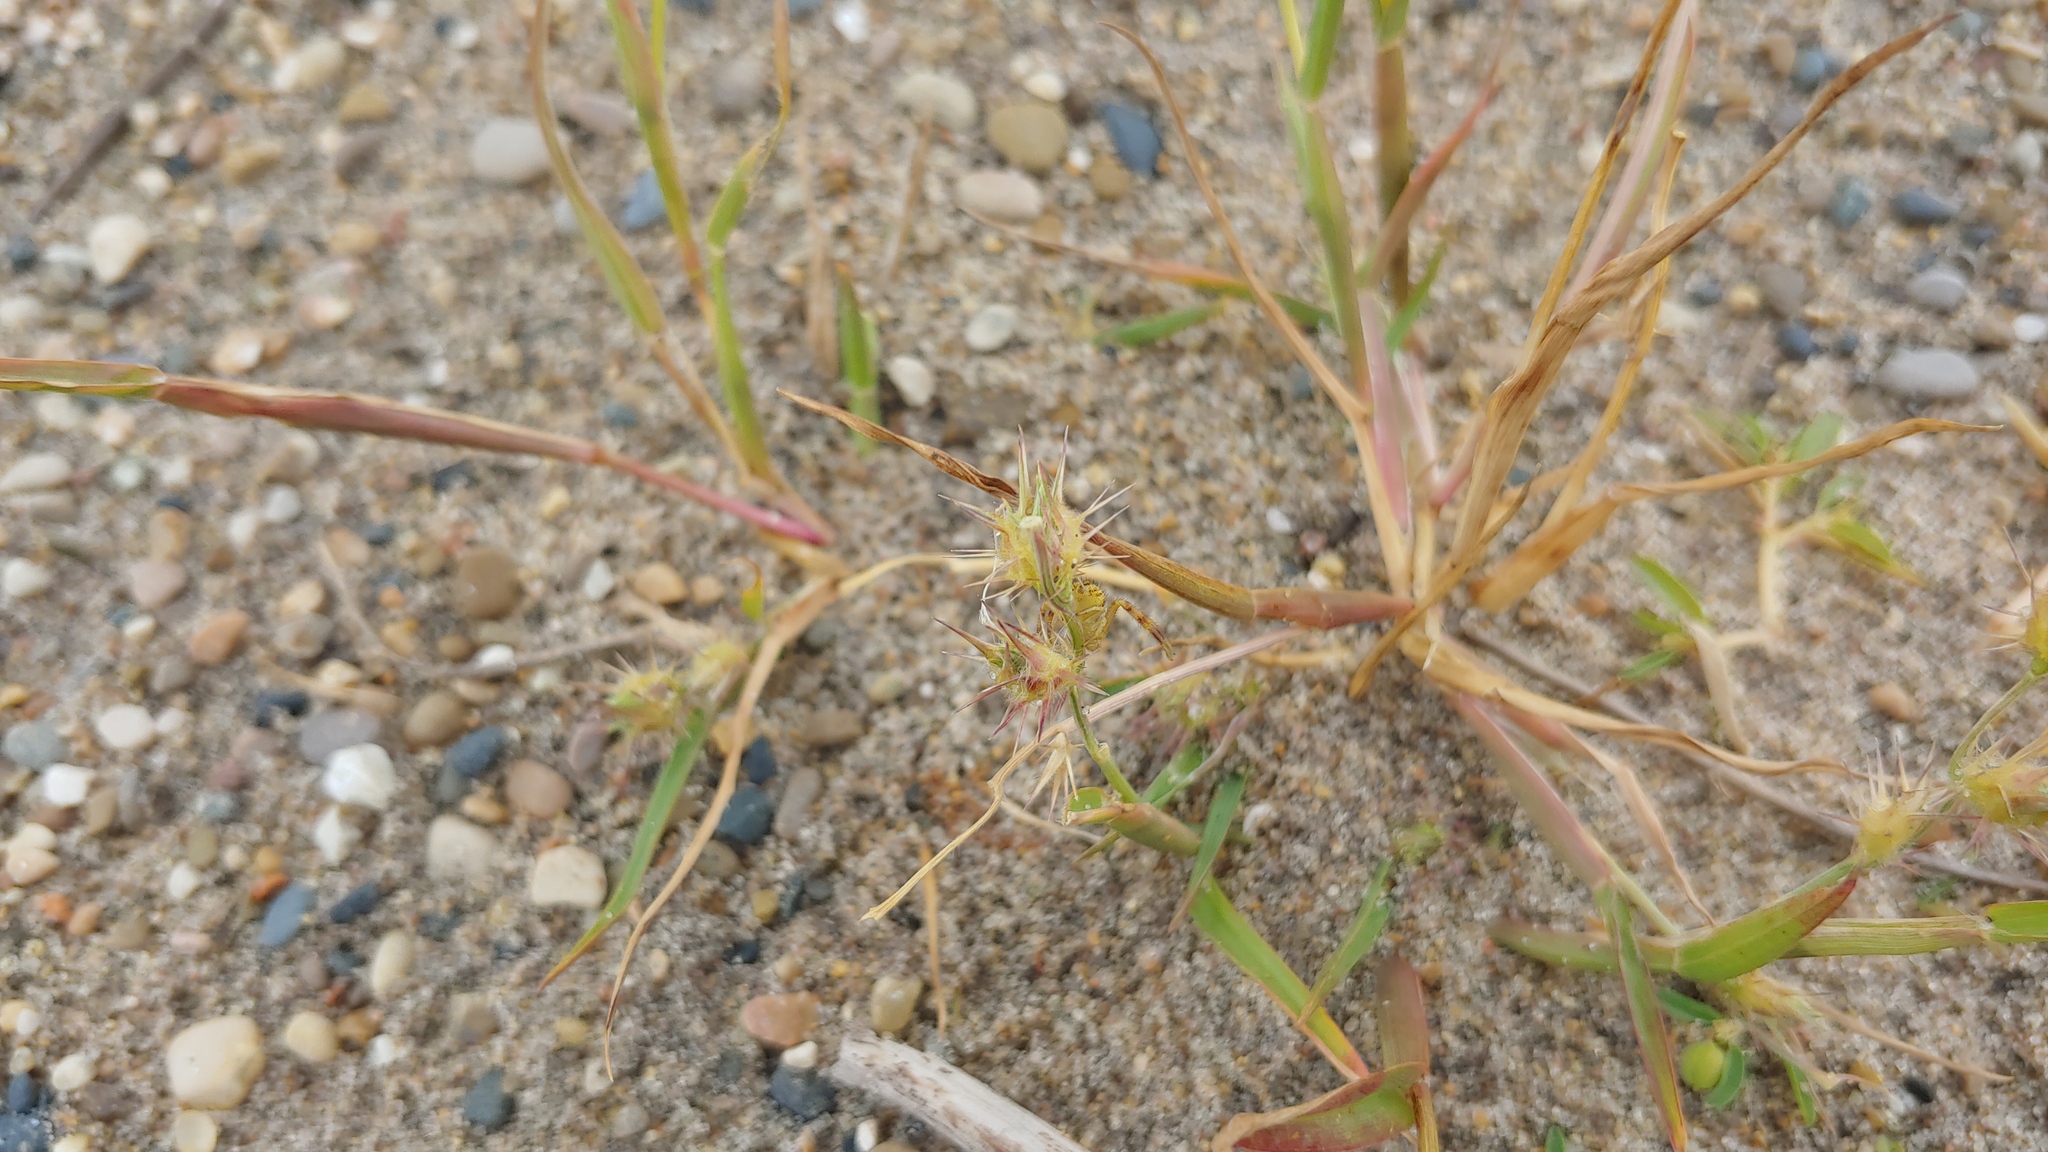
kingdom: Plantae
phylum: Tracheophyta
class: Liliopsida
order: Poales
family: Poaceae
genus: Cenchrus
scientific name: Cenchrus longispinus
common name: Mat sandbur
